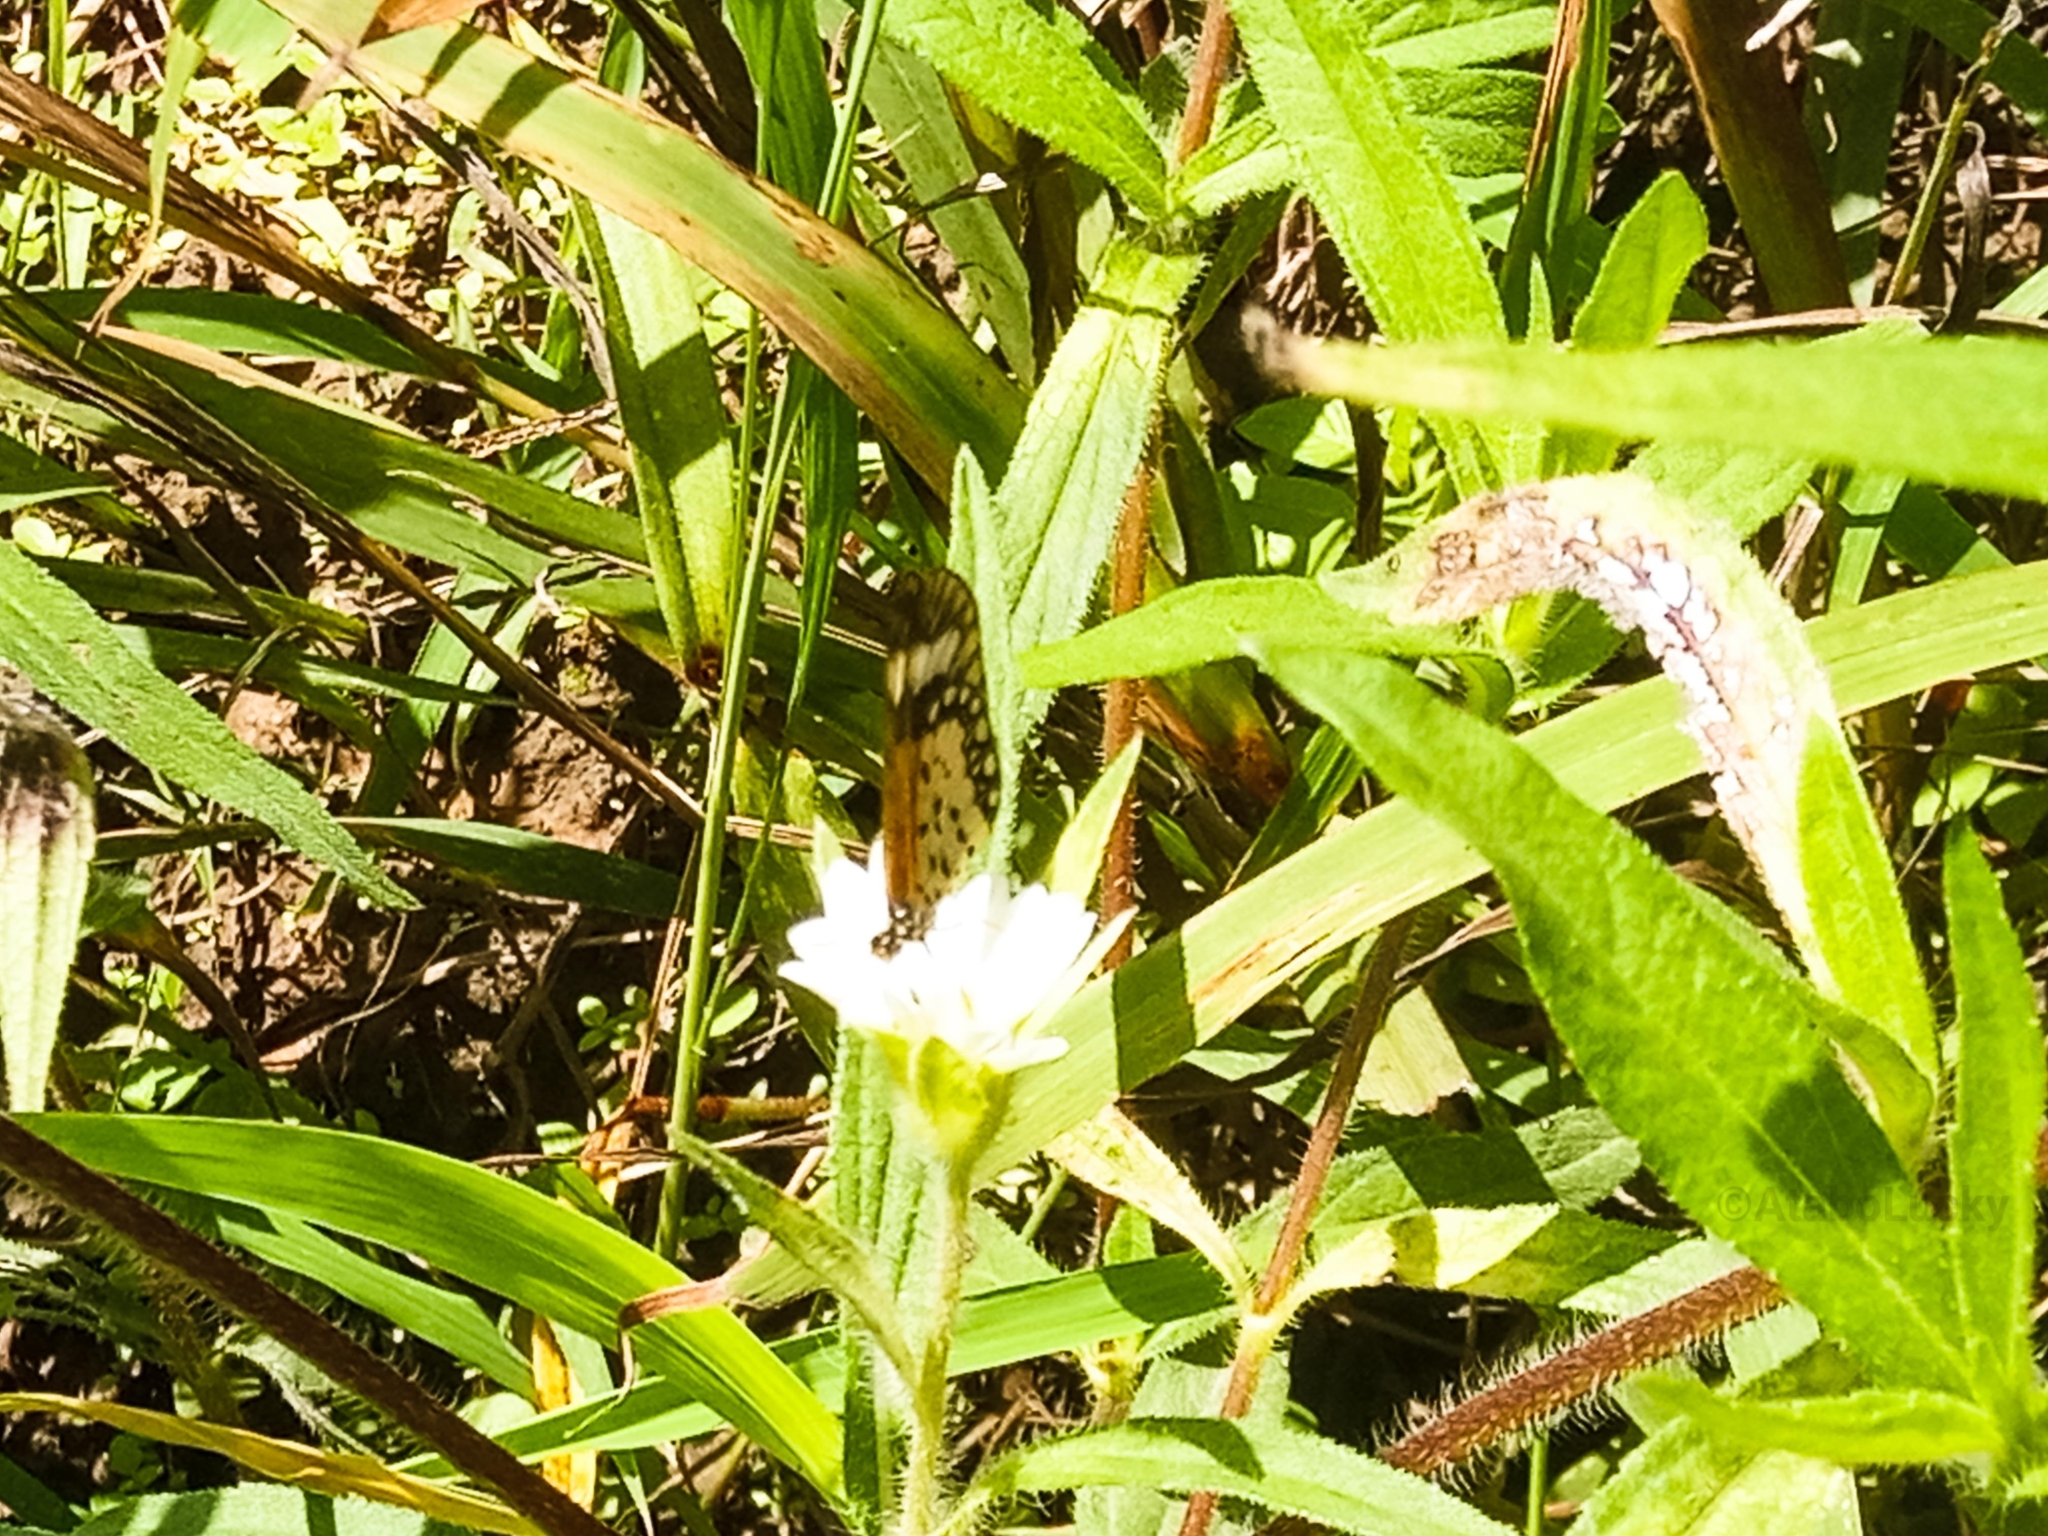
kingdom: Animalia
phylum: Arthropoda
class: Insecta
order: Lepidoptera
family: Nymphalidae
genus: Acraea
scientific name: Acraea Telchinia serena
